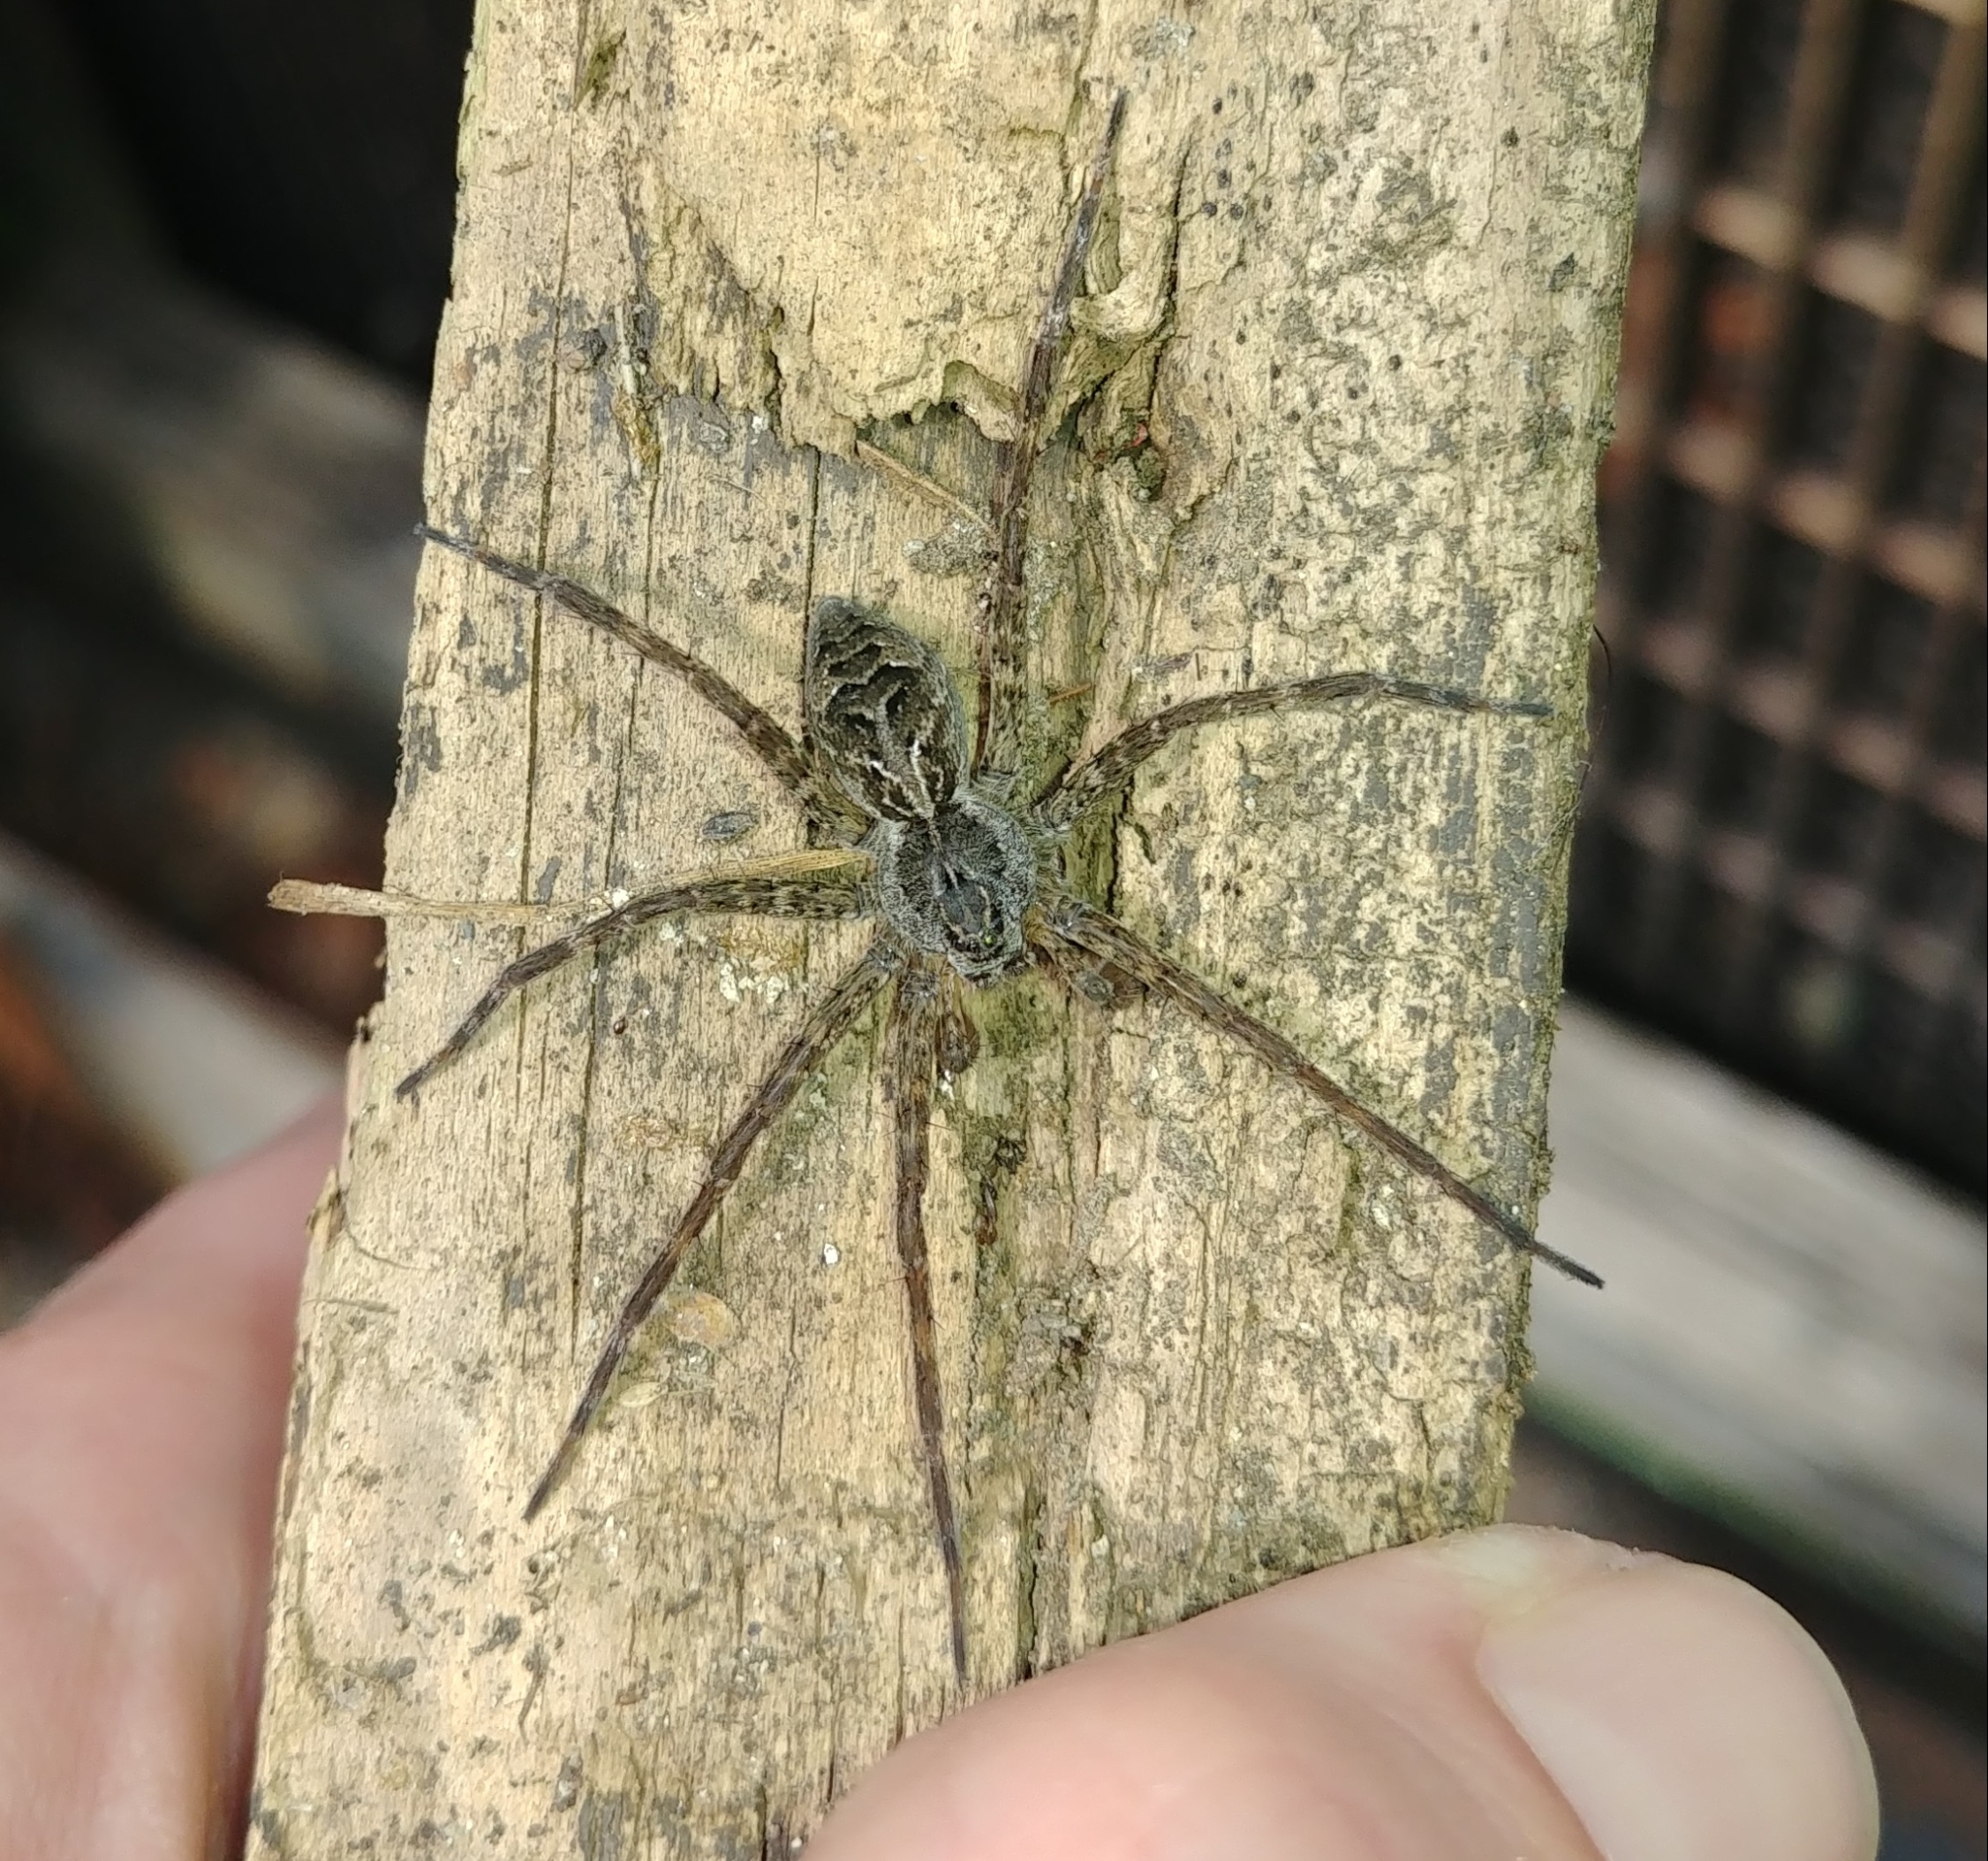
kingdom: Animalia
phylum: Arthropoda
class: Arachnida
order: Araneae
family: Pisauridae
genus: Dolomedes
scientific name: Dolomedes scriptus
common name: Striped fishing spider
